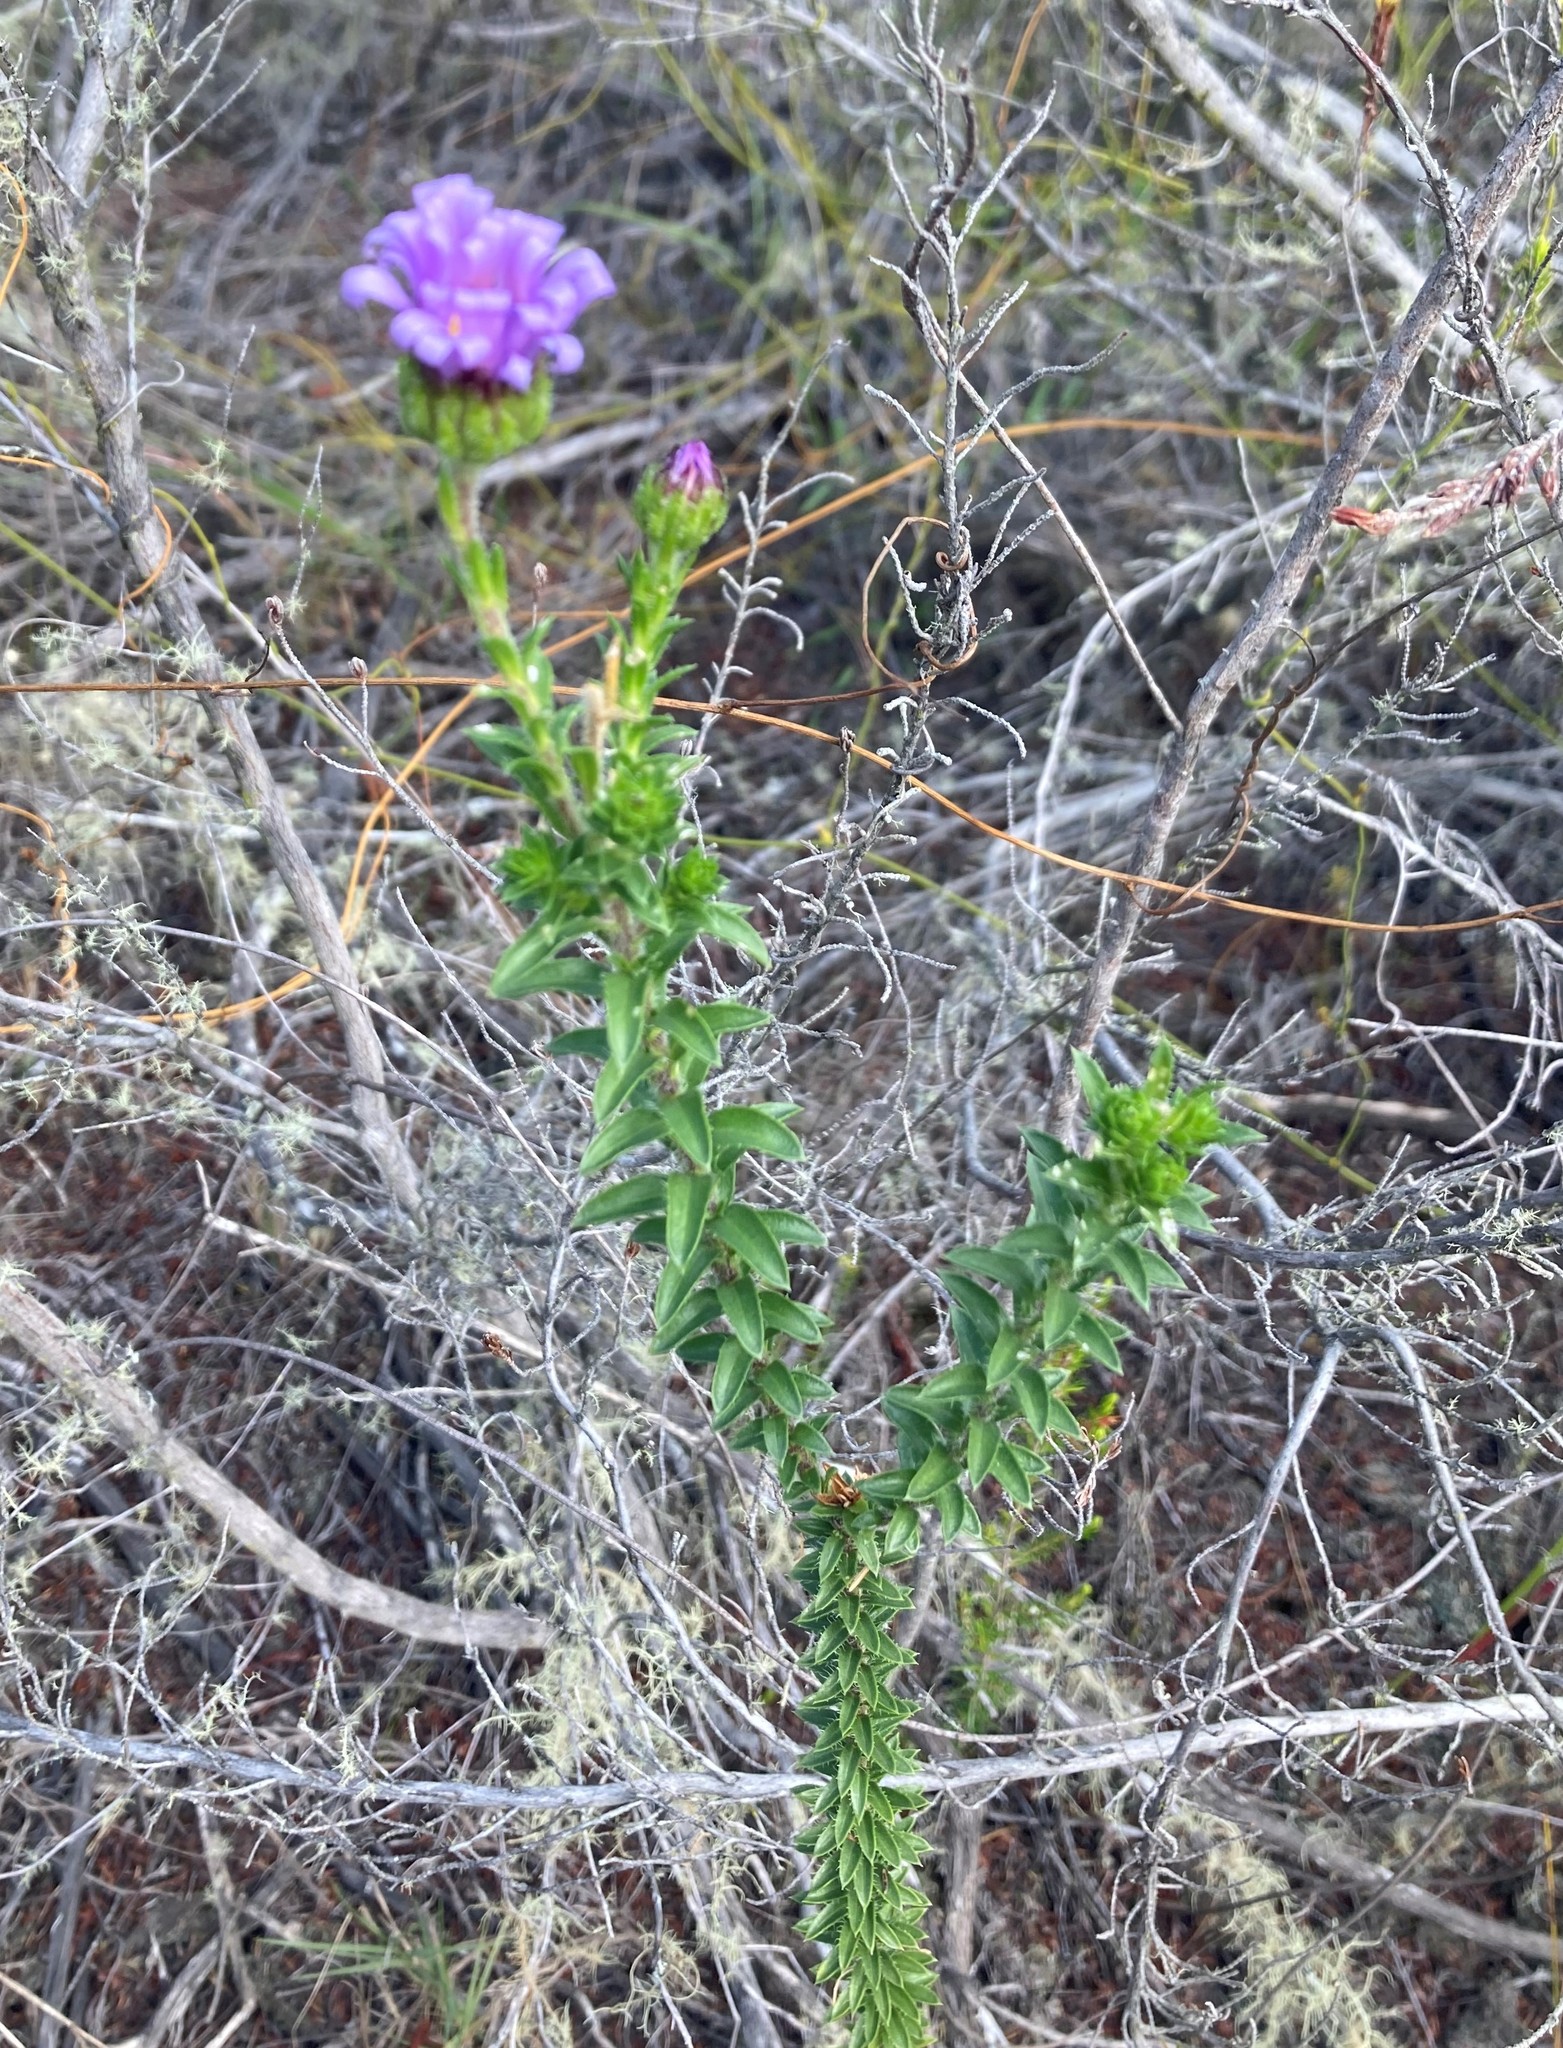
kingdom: Plantae
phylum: Tracheophyta
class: Magnoliopsida
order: Asterales
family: Asteraceae
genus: Felicia
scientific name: Felicia echinata
